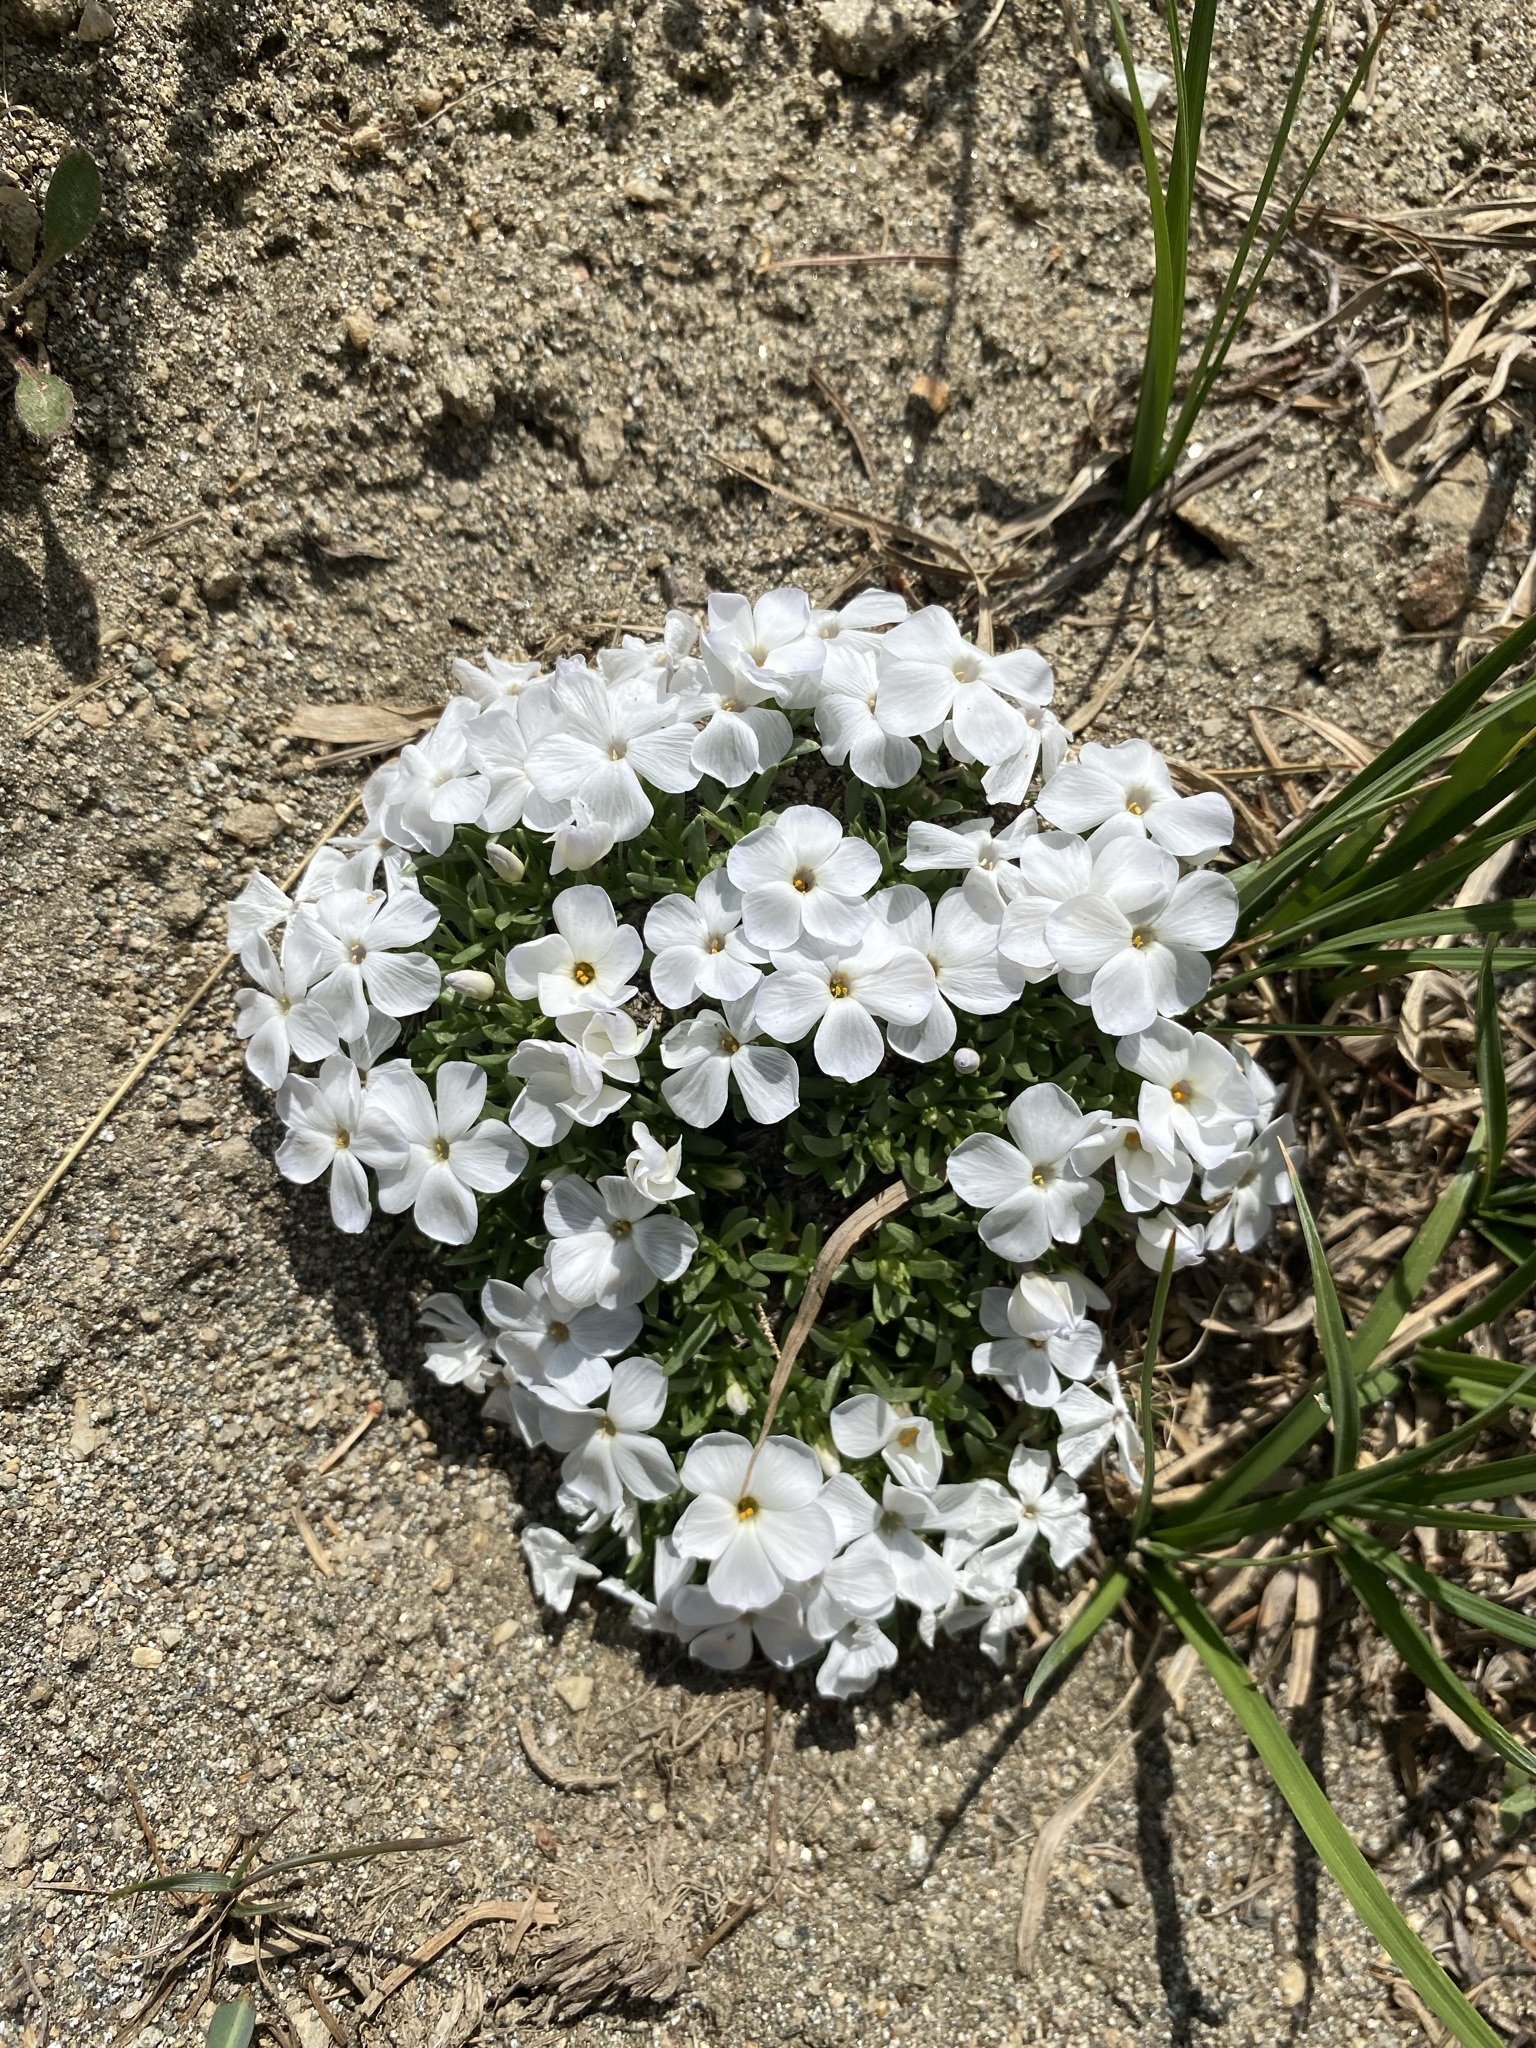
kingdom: Plantae
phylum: Tracheophyta
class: Magnoliopsida
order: Ericales
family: Polemoniaceae
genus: Phlox
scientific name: Phlox multiflora
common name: Rocky mountain phlox
